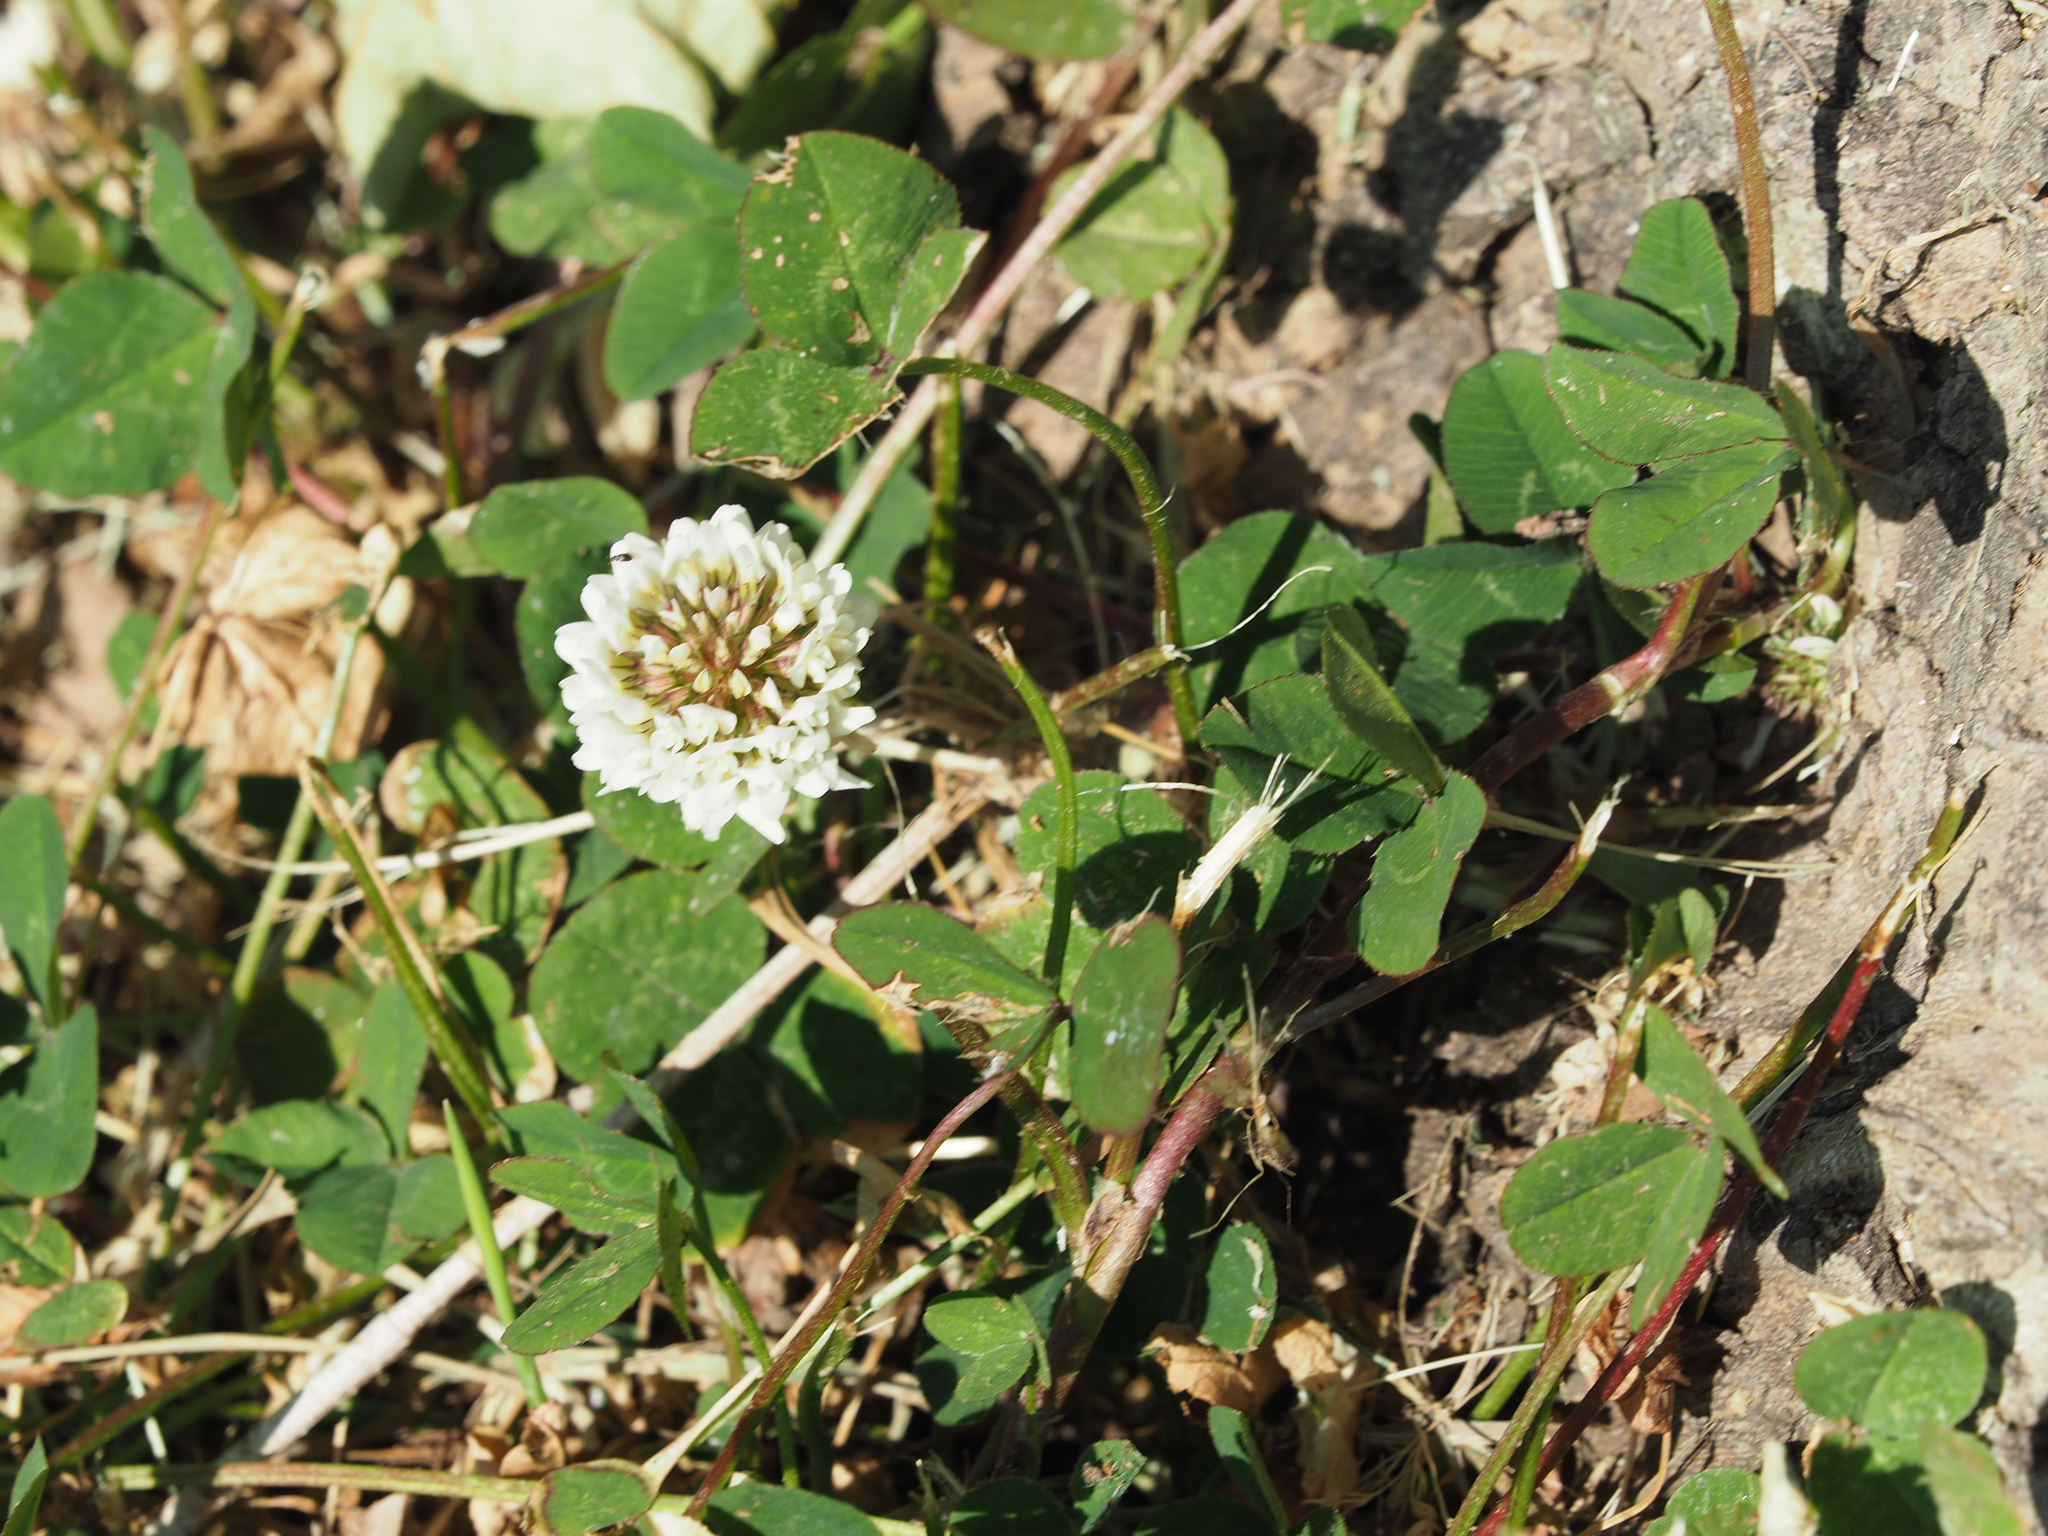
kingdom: Plantae
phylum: Tracheophyta
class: Magnoliopsida
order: Fabales
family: Fabaceae
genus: Trifolium
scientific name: Trifolium repens
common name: White clover
